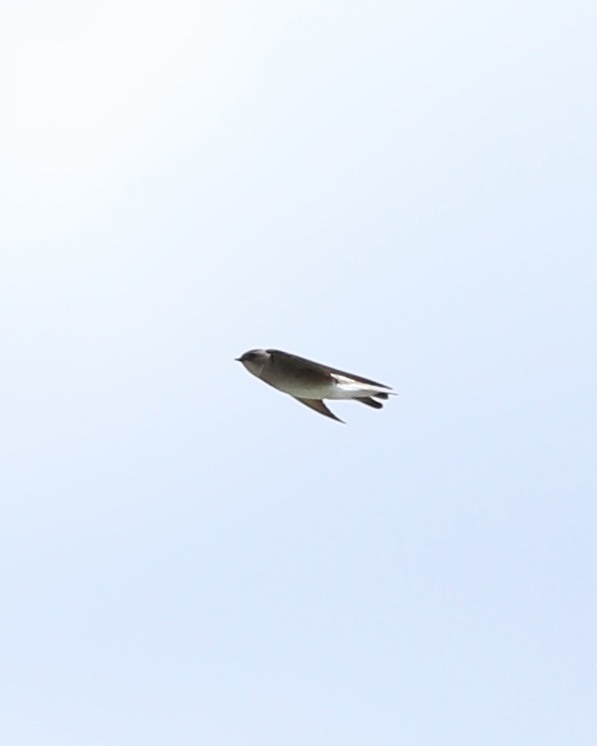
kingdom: Animalia
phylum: Chordata
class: Aves
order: Passeriformes
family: Hirundinidae
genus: Stelgidopteryx
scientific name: Stelgidopteryx serripennis
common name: Northern rough-winged swallow
